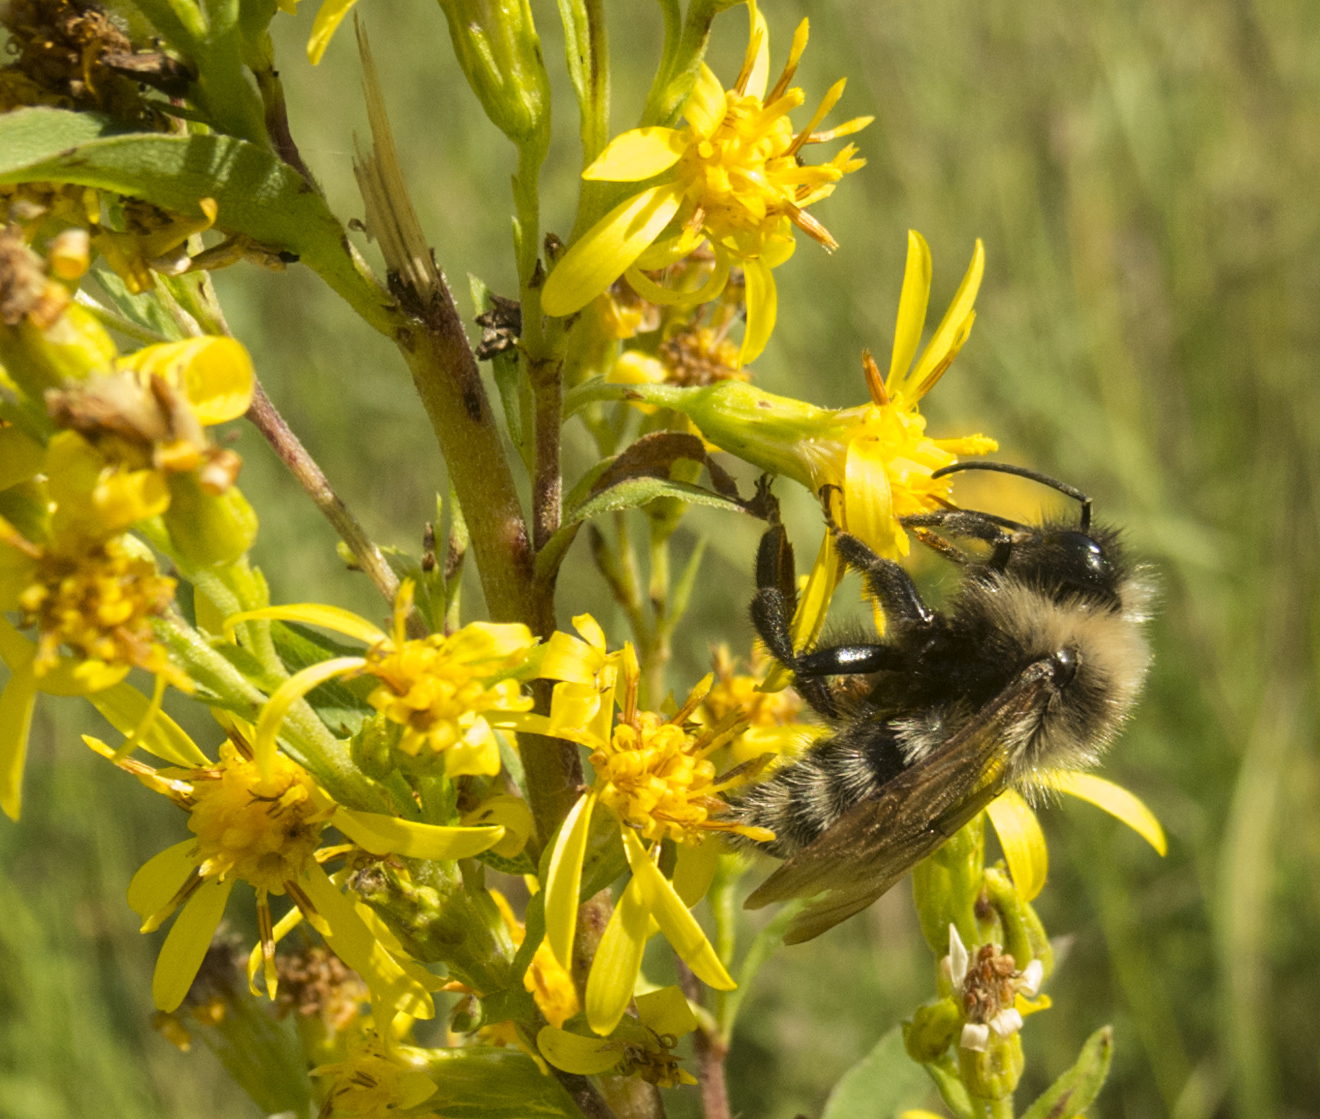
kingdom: Animalia
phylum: Arthropoda
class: Insecta
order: Hymenoptera
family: Apidae
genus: Bombus
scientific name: Bombus campestris
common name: Field cuckoo-bee
